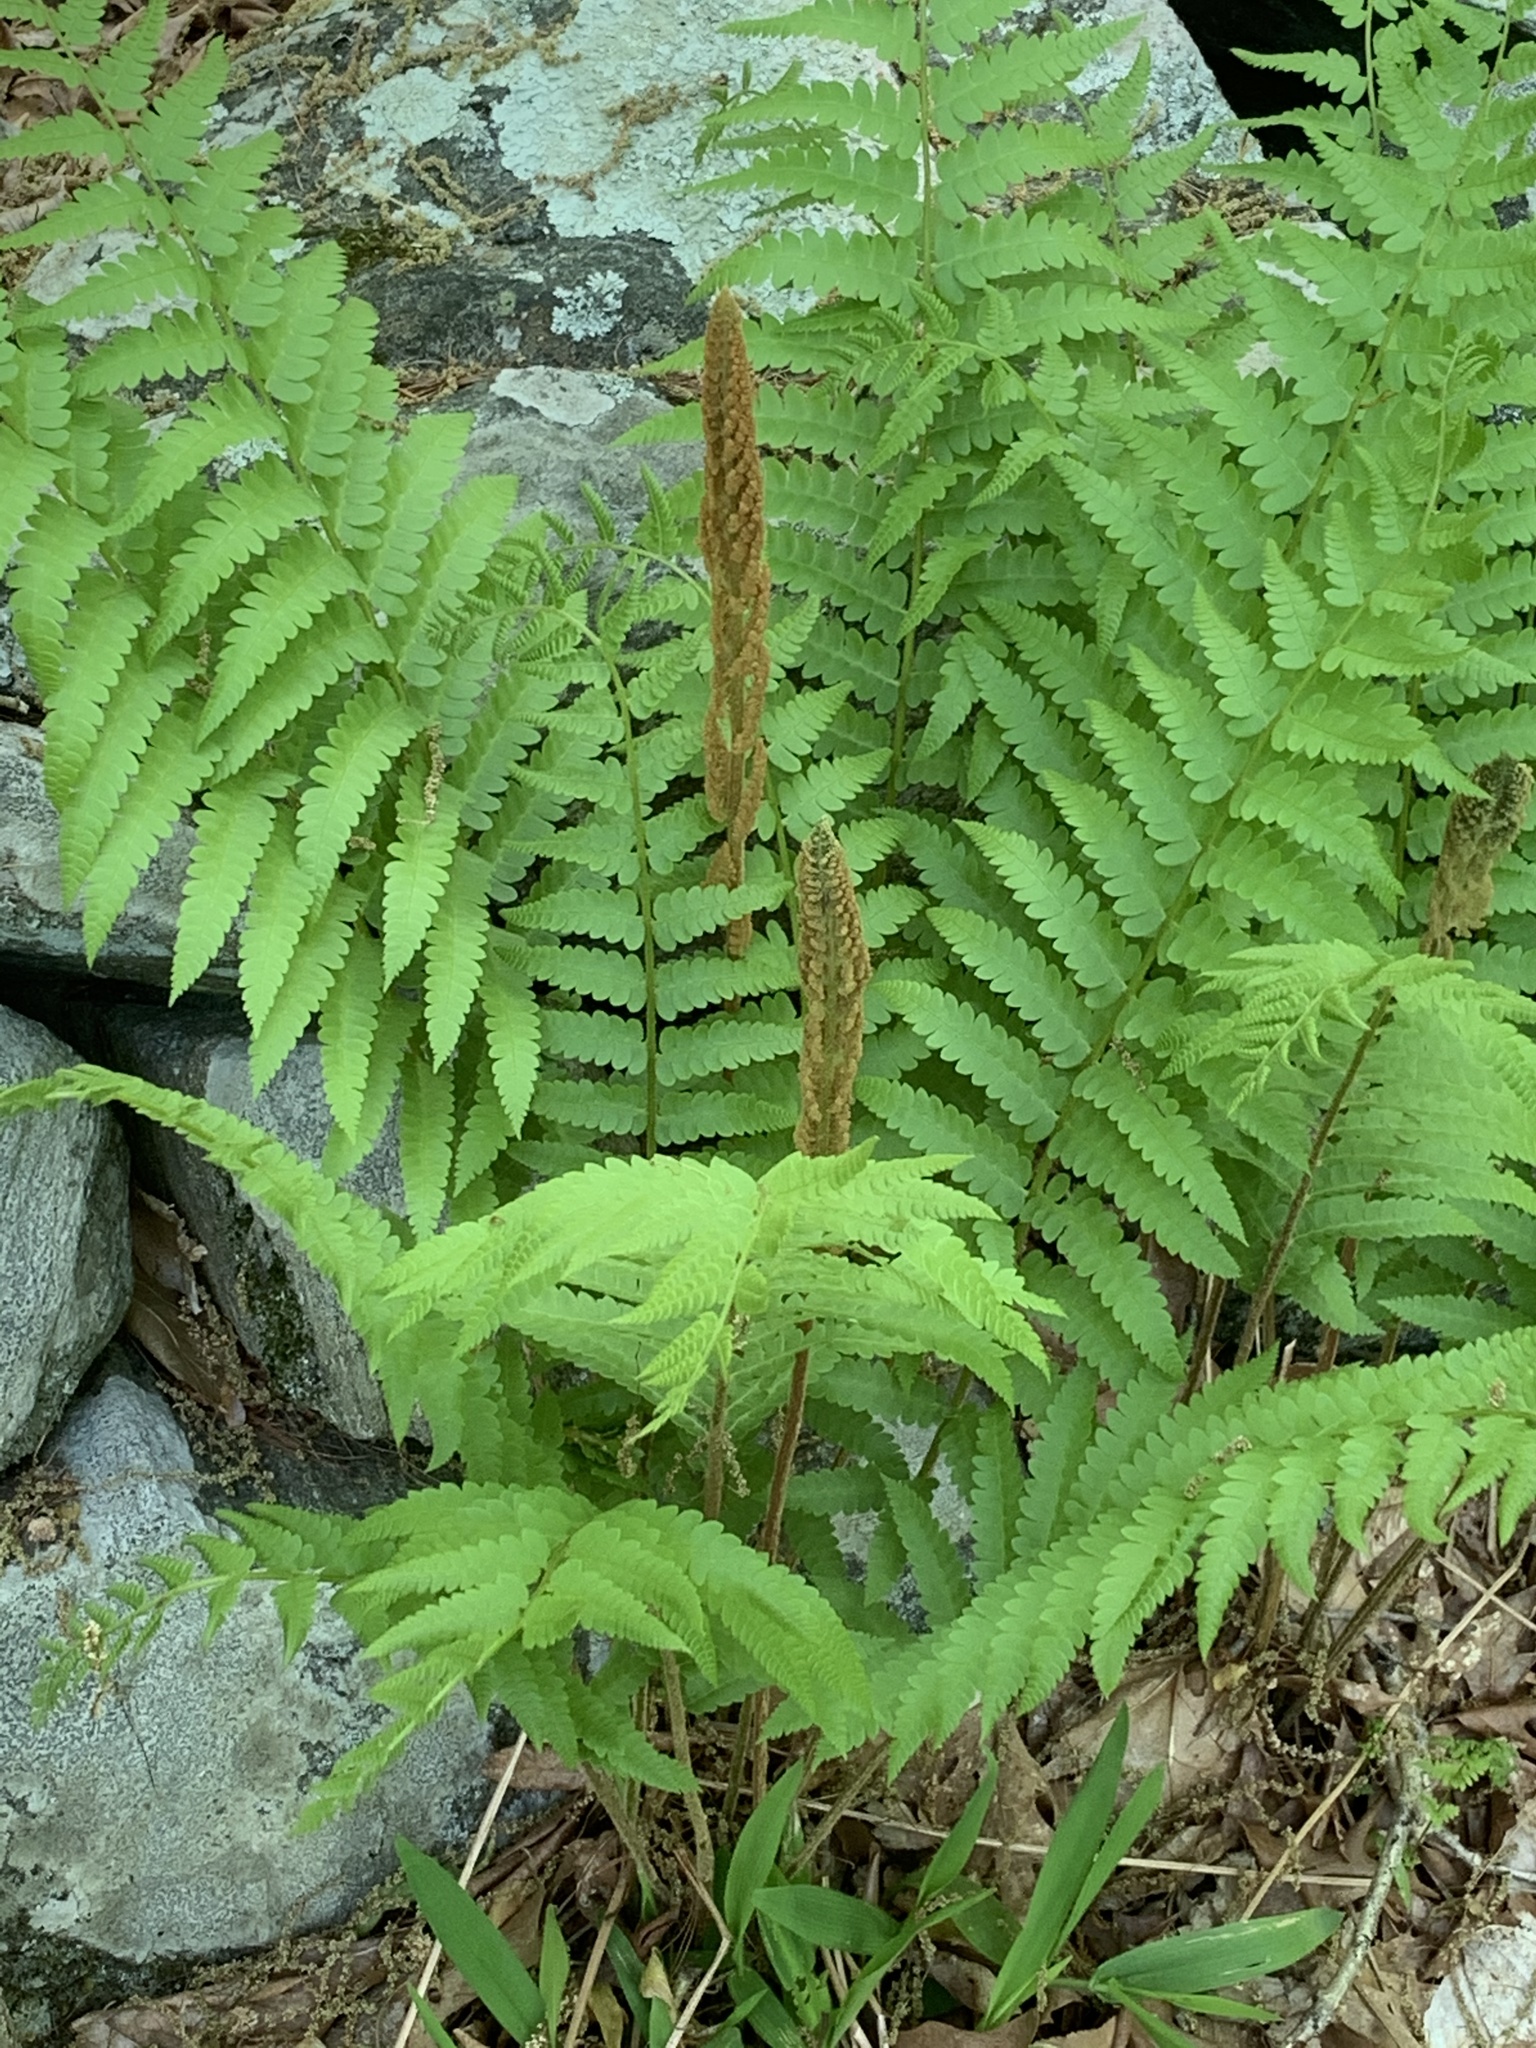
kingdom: Plantae
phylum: Tracheophyta
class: Polypodiopsida
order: Osmundales
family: Osmundaceae
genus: Osmundastrum
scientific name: Osmundastrum cinnamomeum
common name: Cinnamon fern
